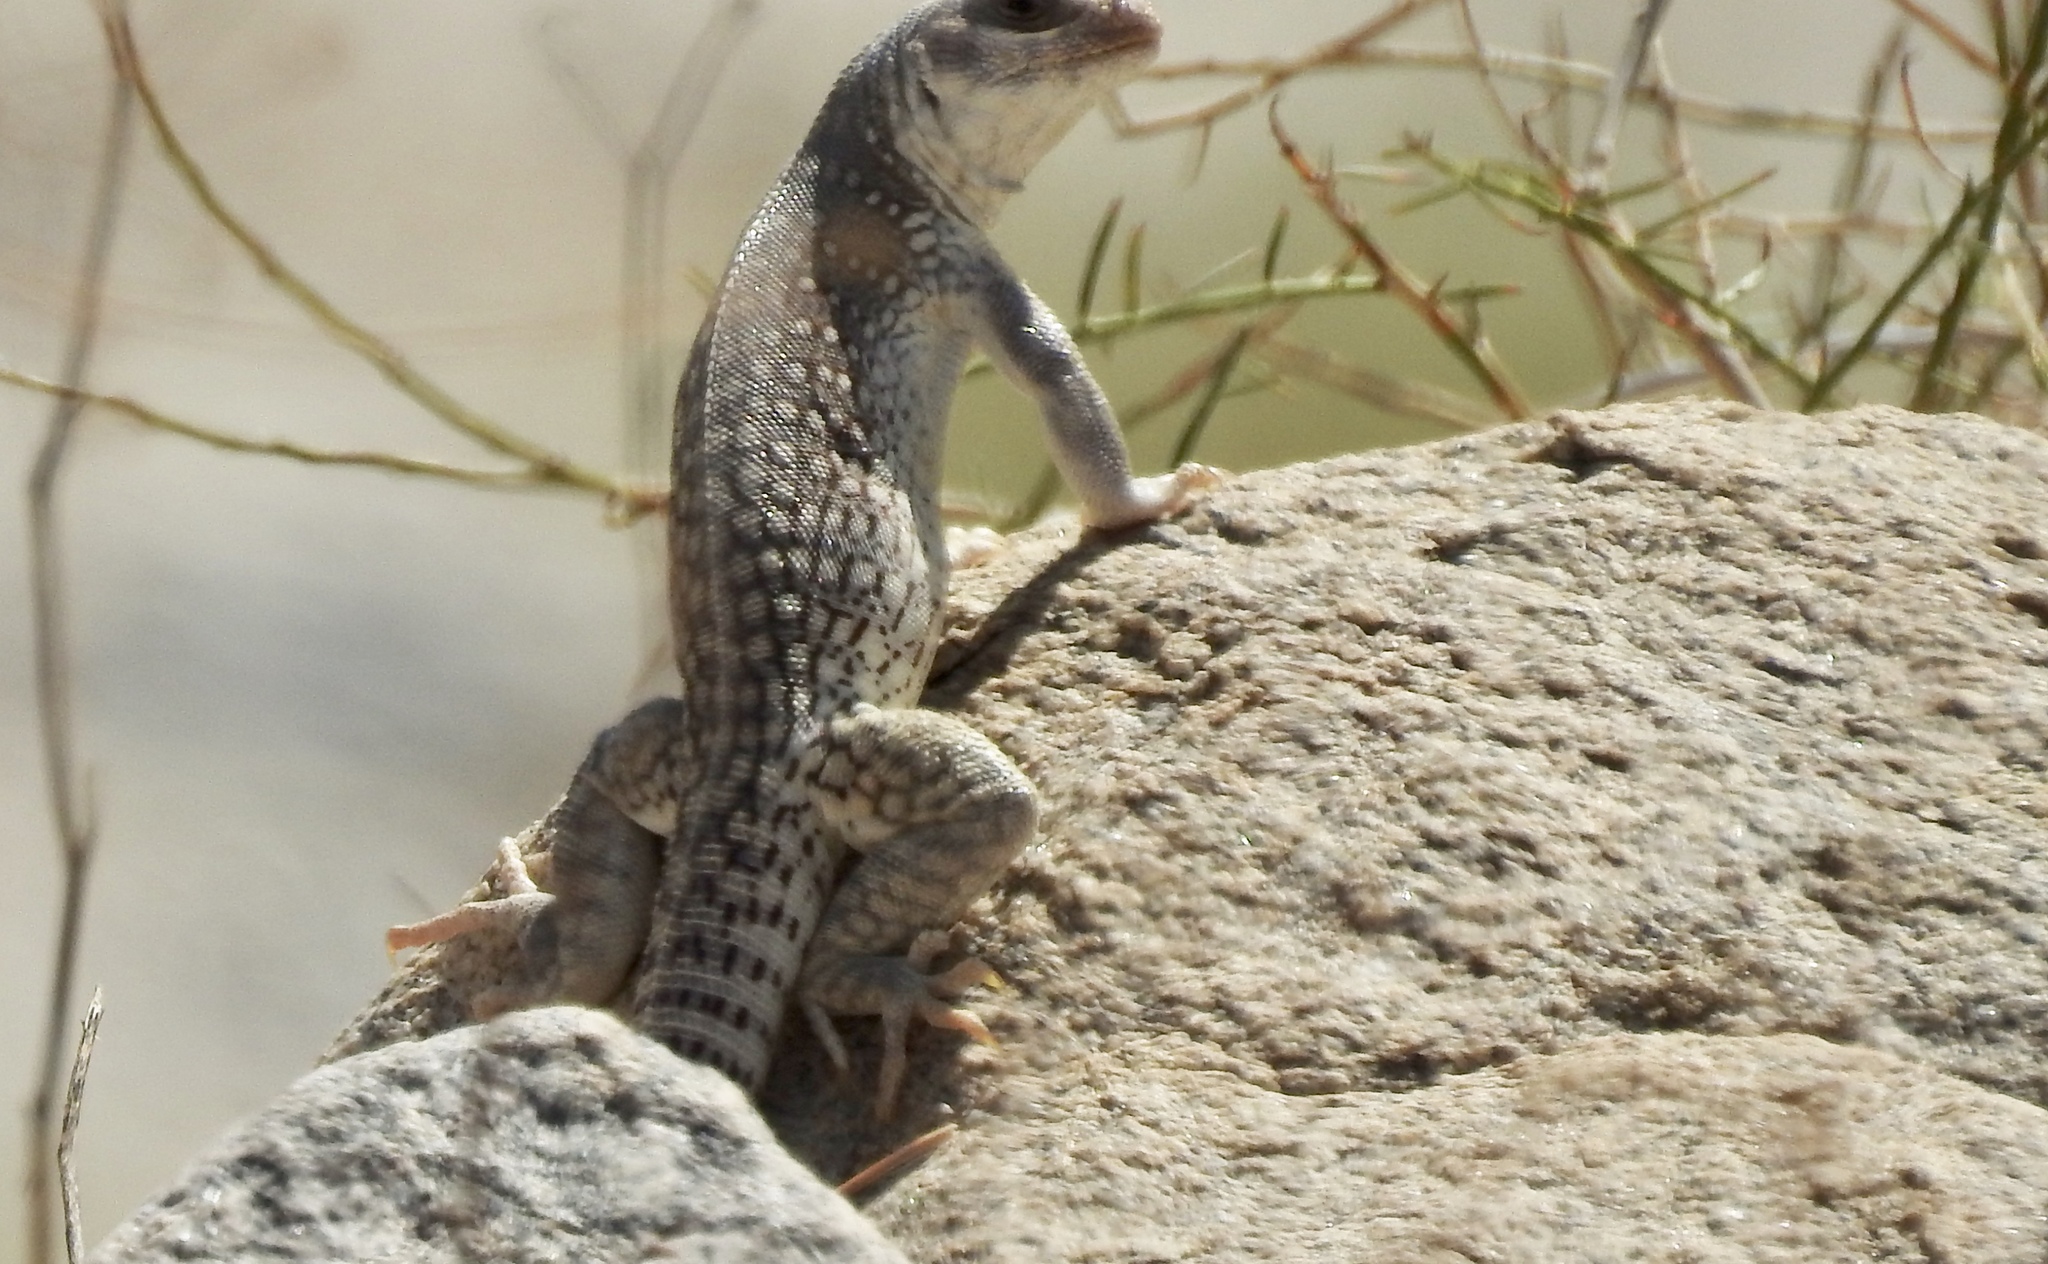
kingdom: Animalia
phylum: Chordata
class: Squamata
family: Iguanidae
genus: Dipsosaurus
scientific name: Dipsosaurus dorsalis
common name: Desert iguana
